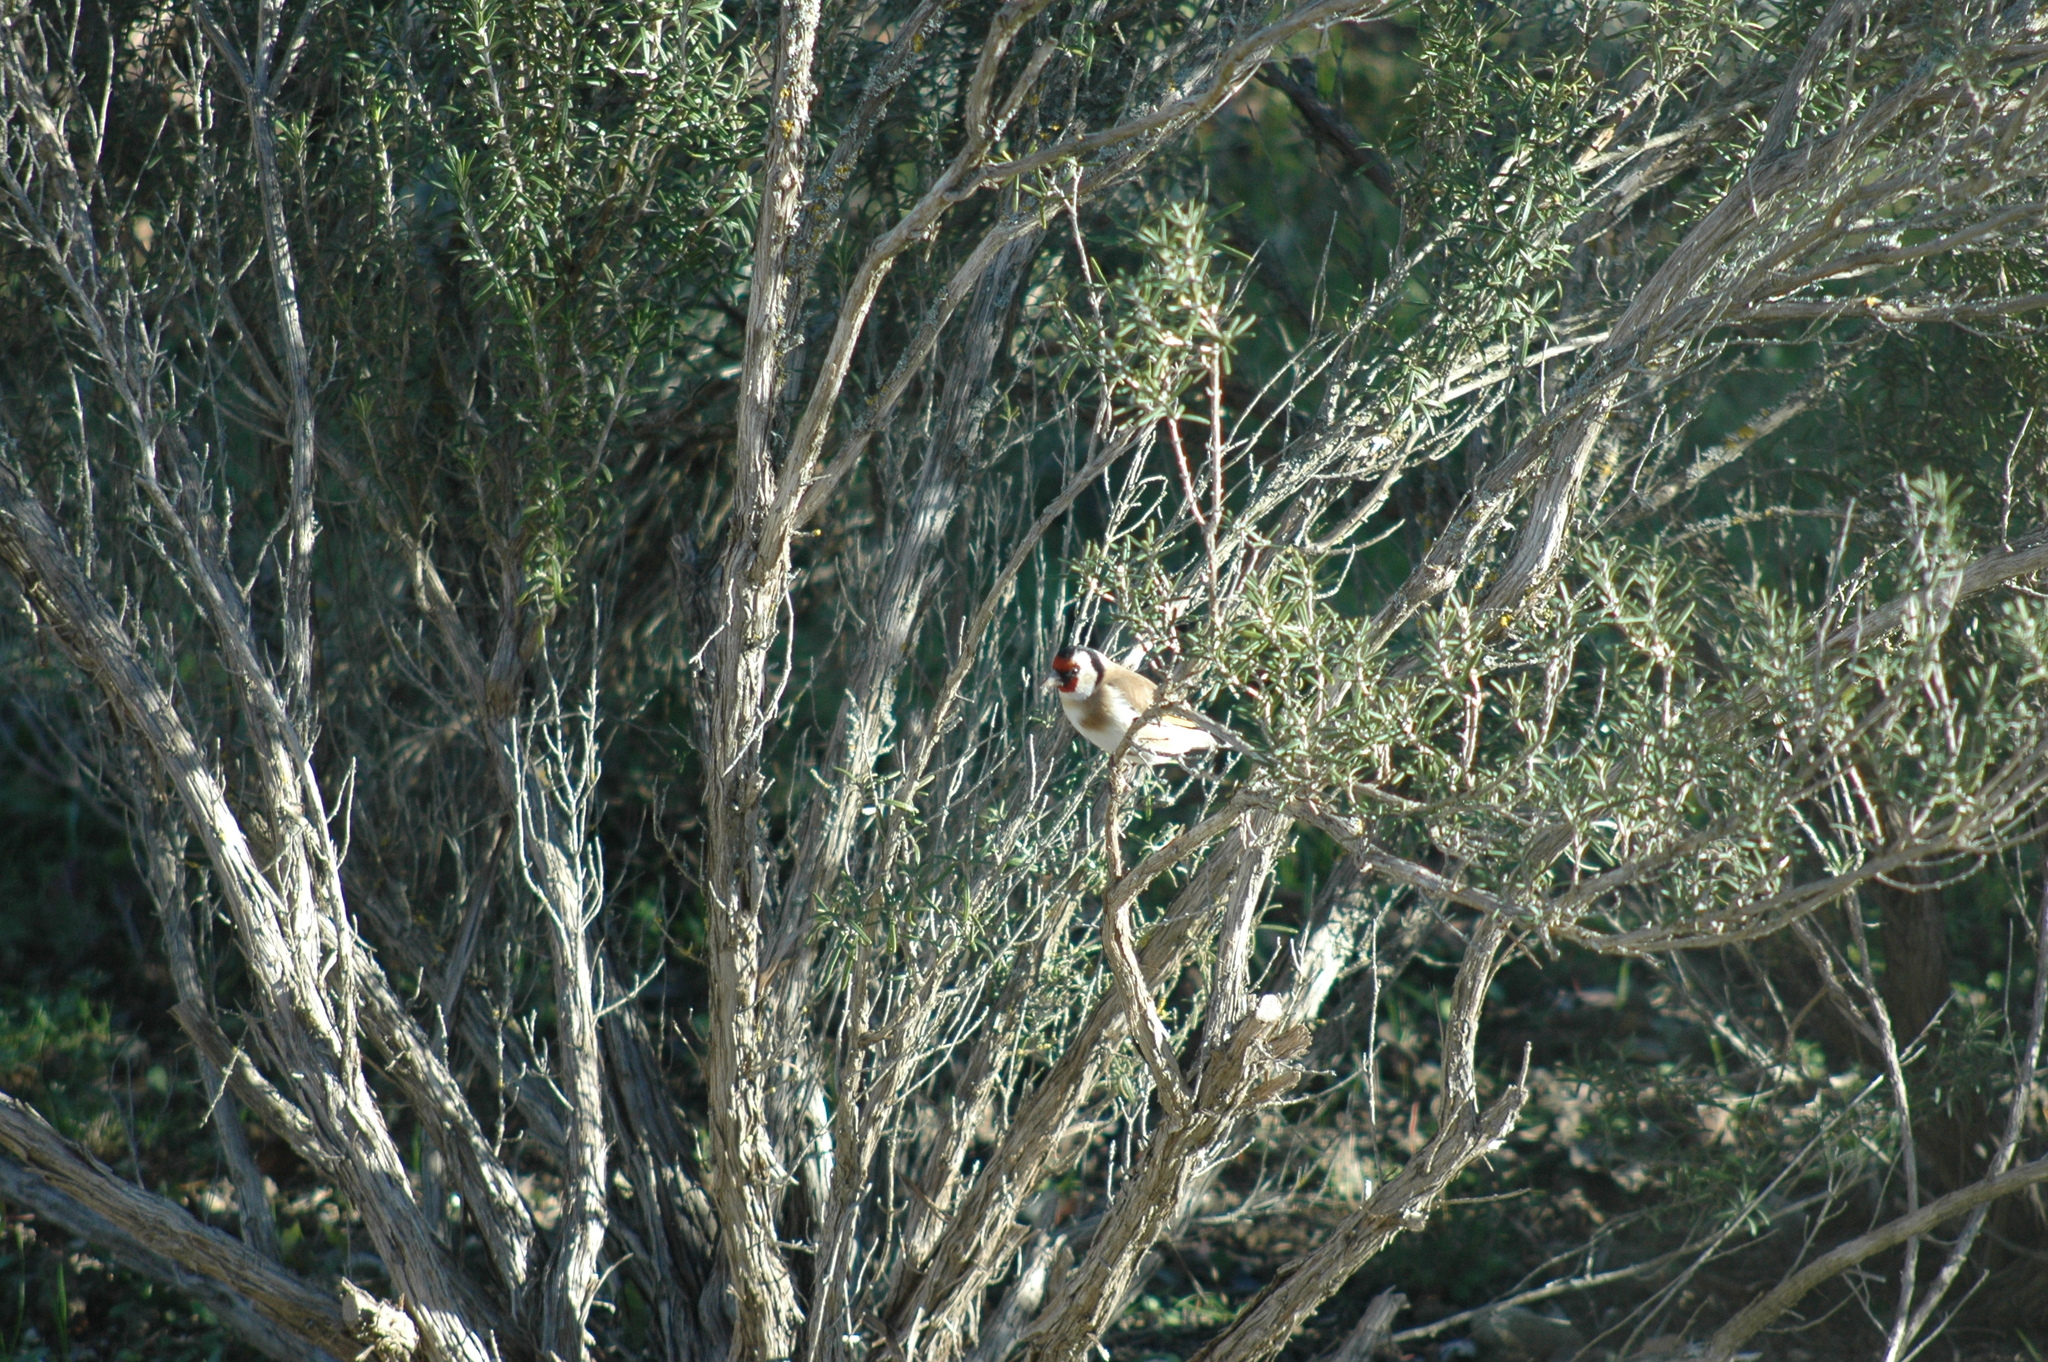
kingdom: Animalia
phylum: Chordata
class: Aves
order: Passeriformes
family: Fringillidae
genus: Carduelis
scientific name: Carduelis carduelis
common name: European goldfinch
